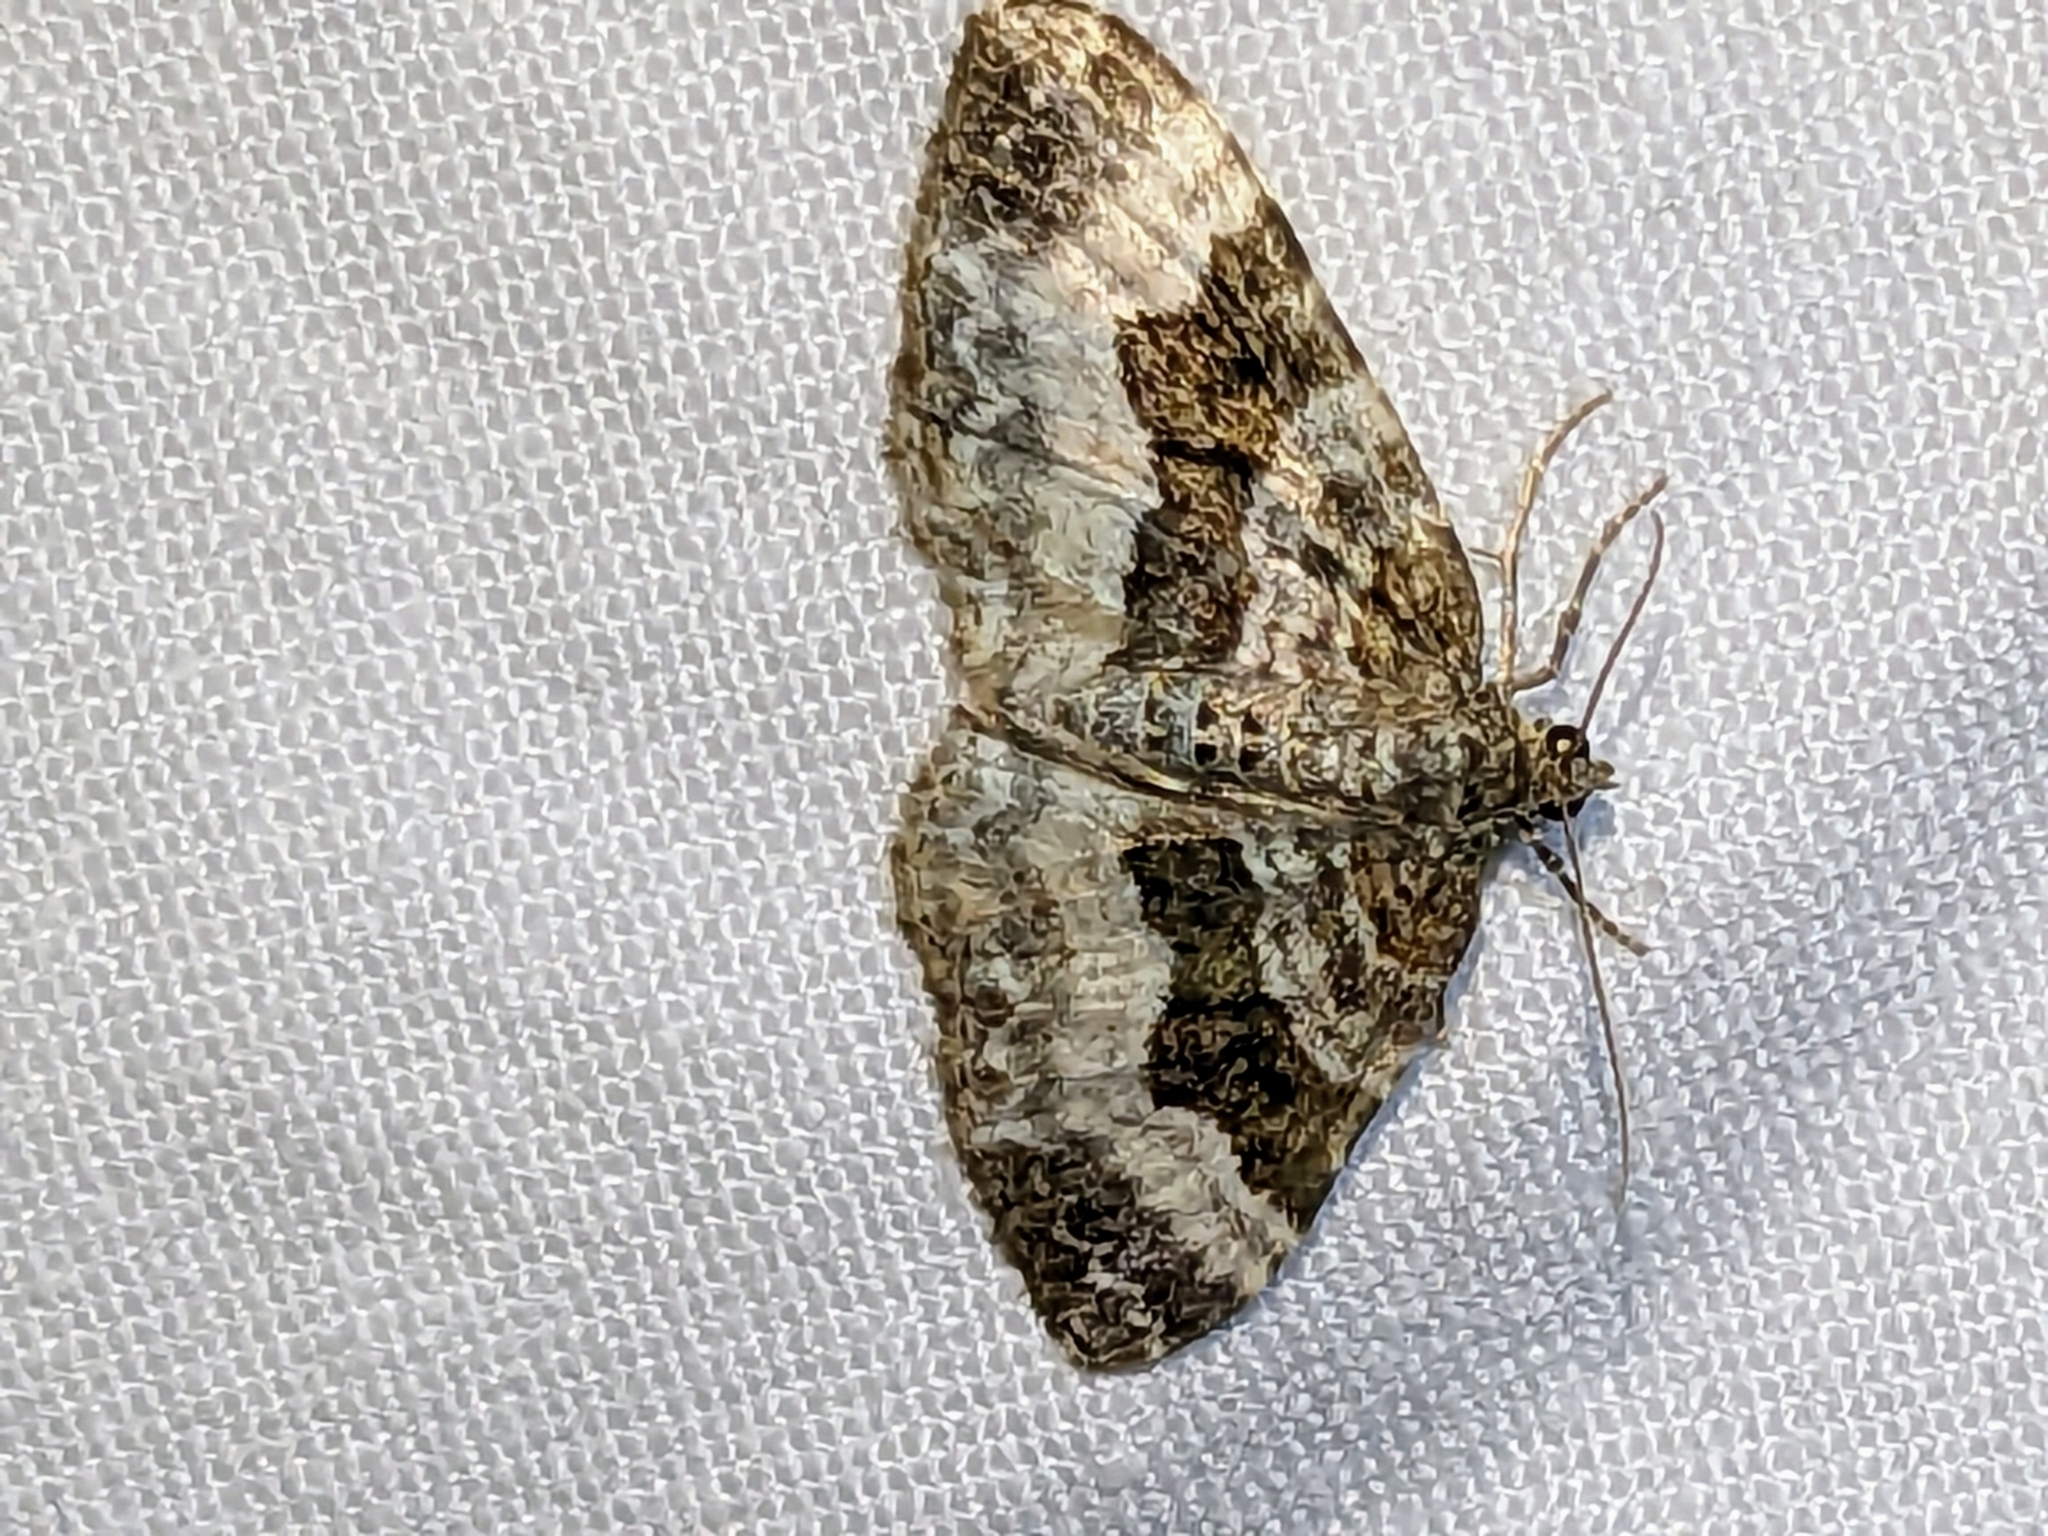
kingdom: Animalia
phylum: Arthropoda
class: Insecta
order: Lepidoptera
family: Geometridae
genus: Epirrhoe
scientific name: Epirrhoe alternata
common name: Common carpet
